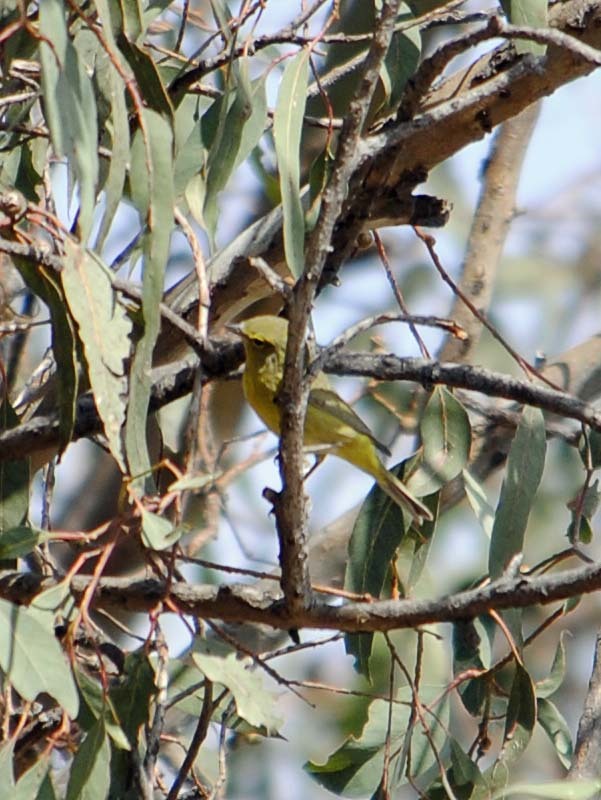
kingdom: Animalia
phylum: Chordata
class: Aves
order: Passeriformes
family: Parulidae
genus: Leiothlypis
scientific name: Leiothlypis celata
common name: Orange-crowned warbler
